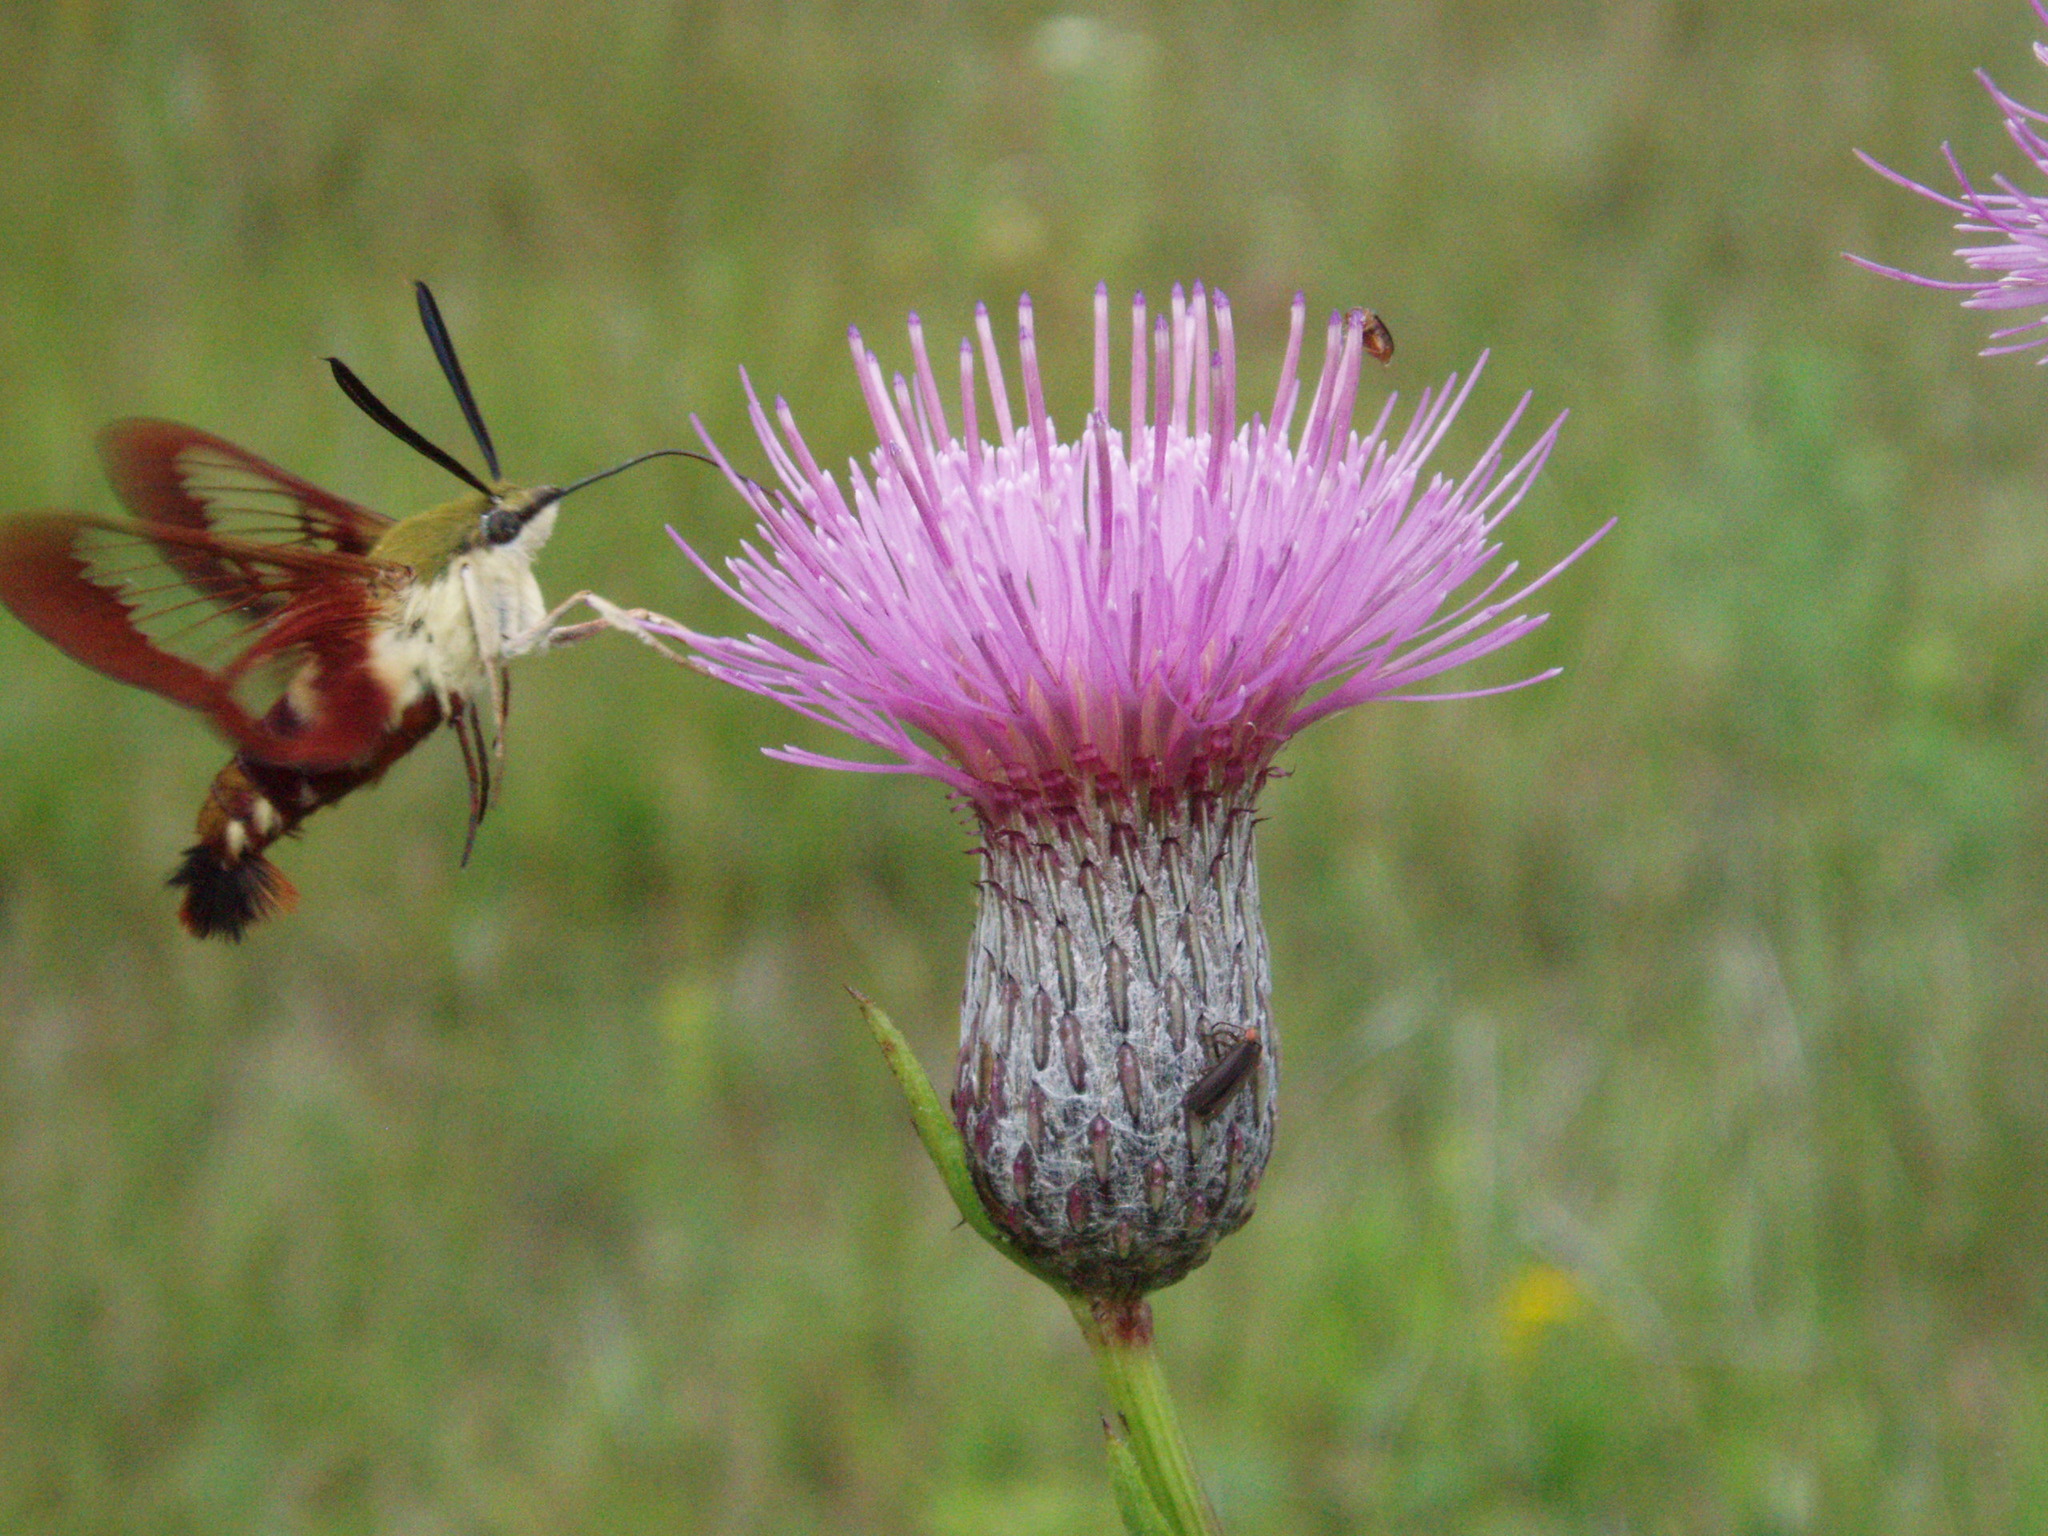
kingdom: Animalia
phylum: Arthropoda
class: Insecta
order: Lepidoptera
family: Sphingidae
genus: Hemaris
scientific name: Hemaris thysbe
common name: Common clear-wing
